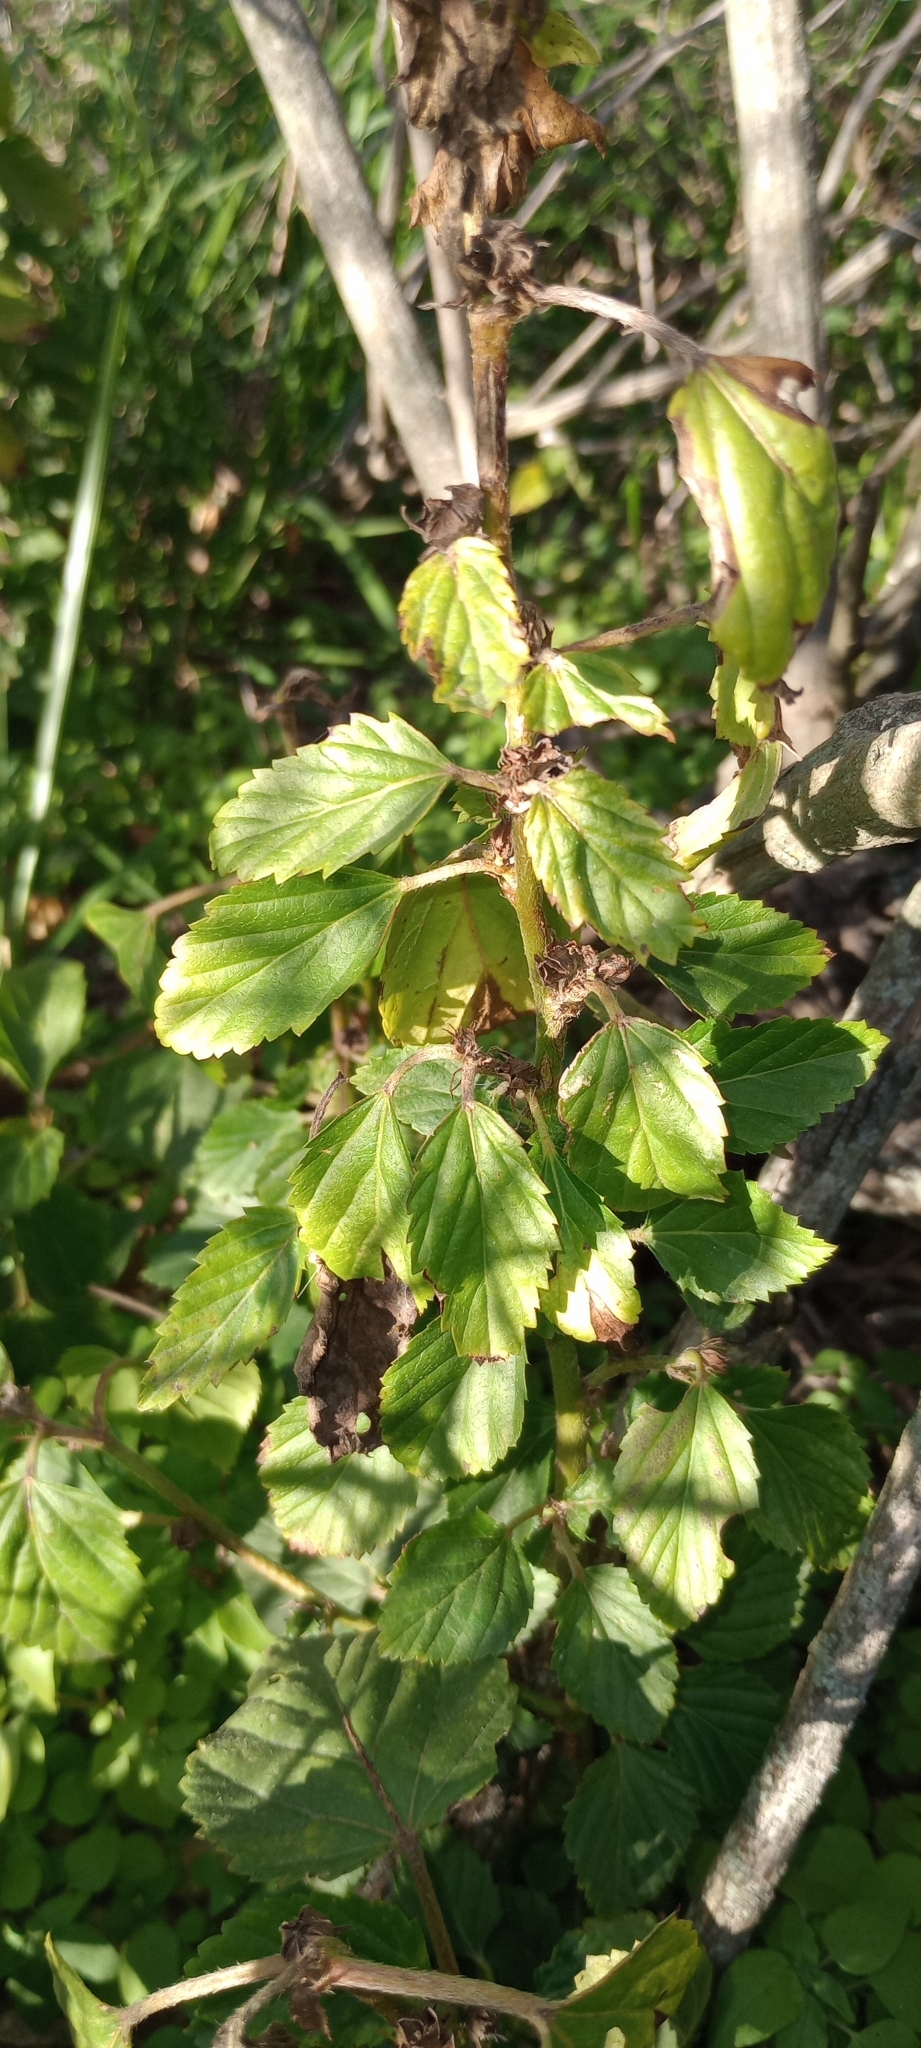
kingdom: Plantae
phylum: Tracheophyta
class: Magnoliopsida
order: Malvales
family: Malvaceae
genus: Malvastrum
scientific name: Malvastrum coromandelianum
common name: Threelobe false mallow
